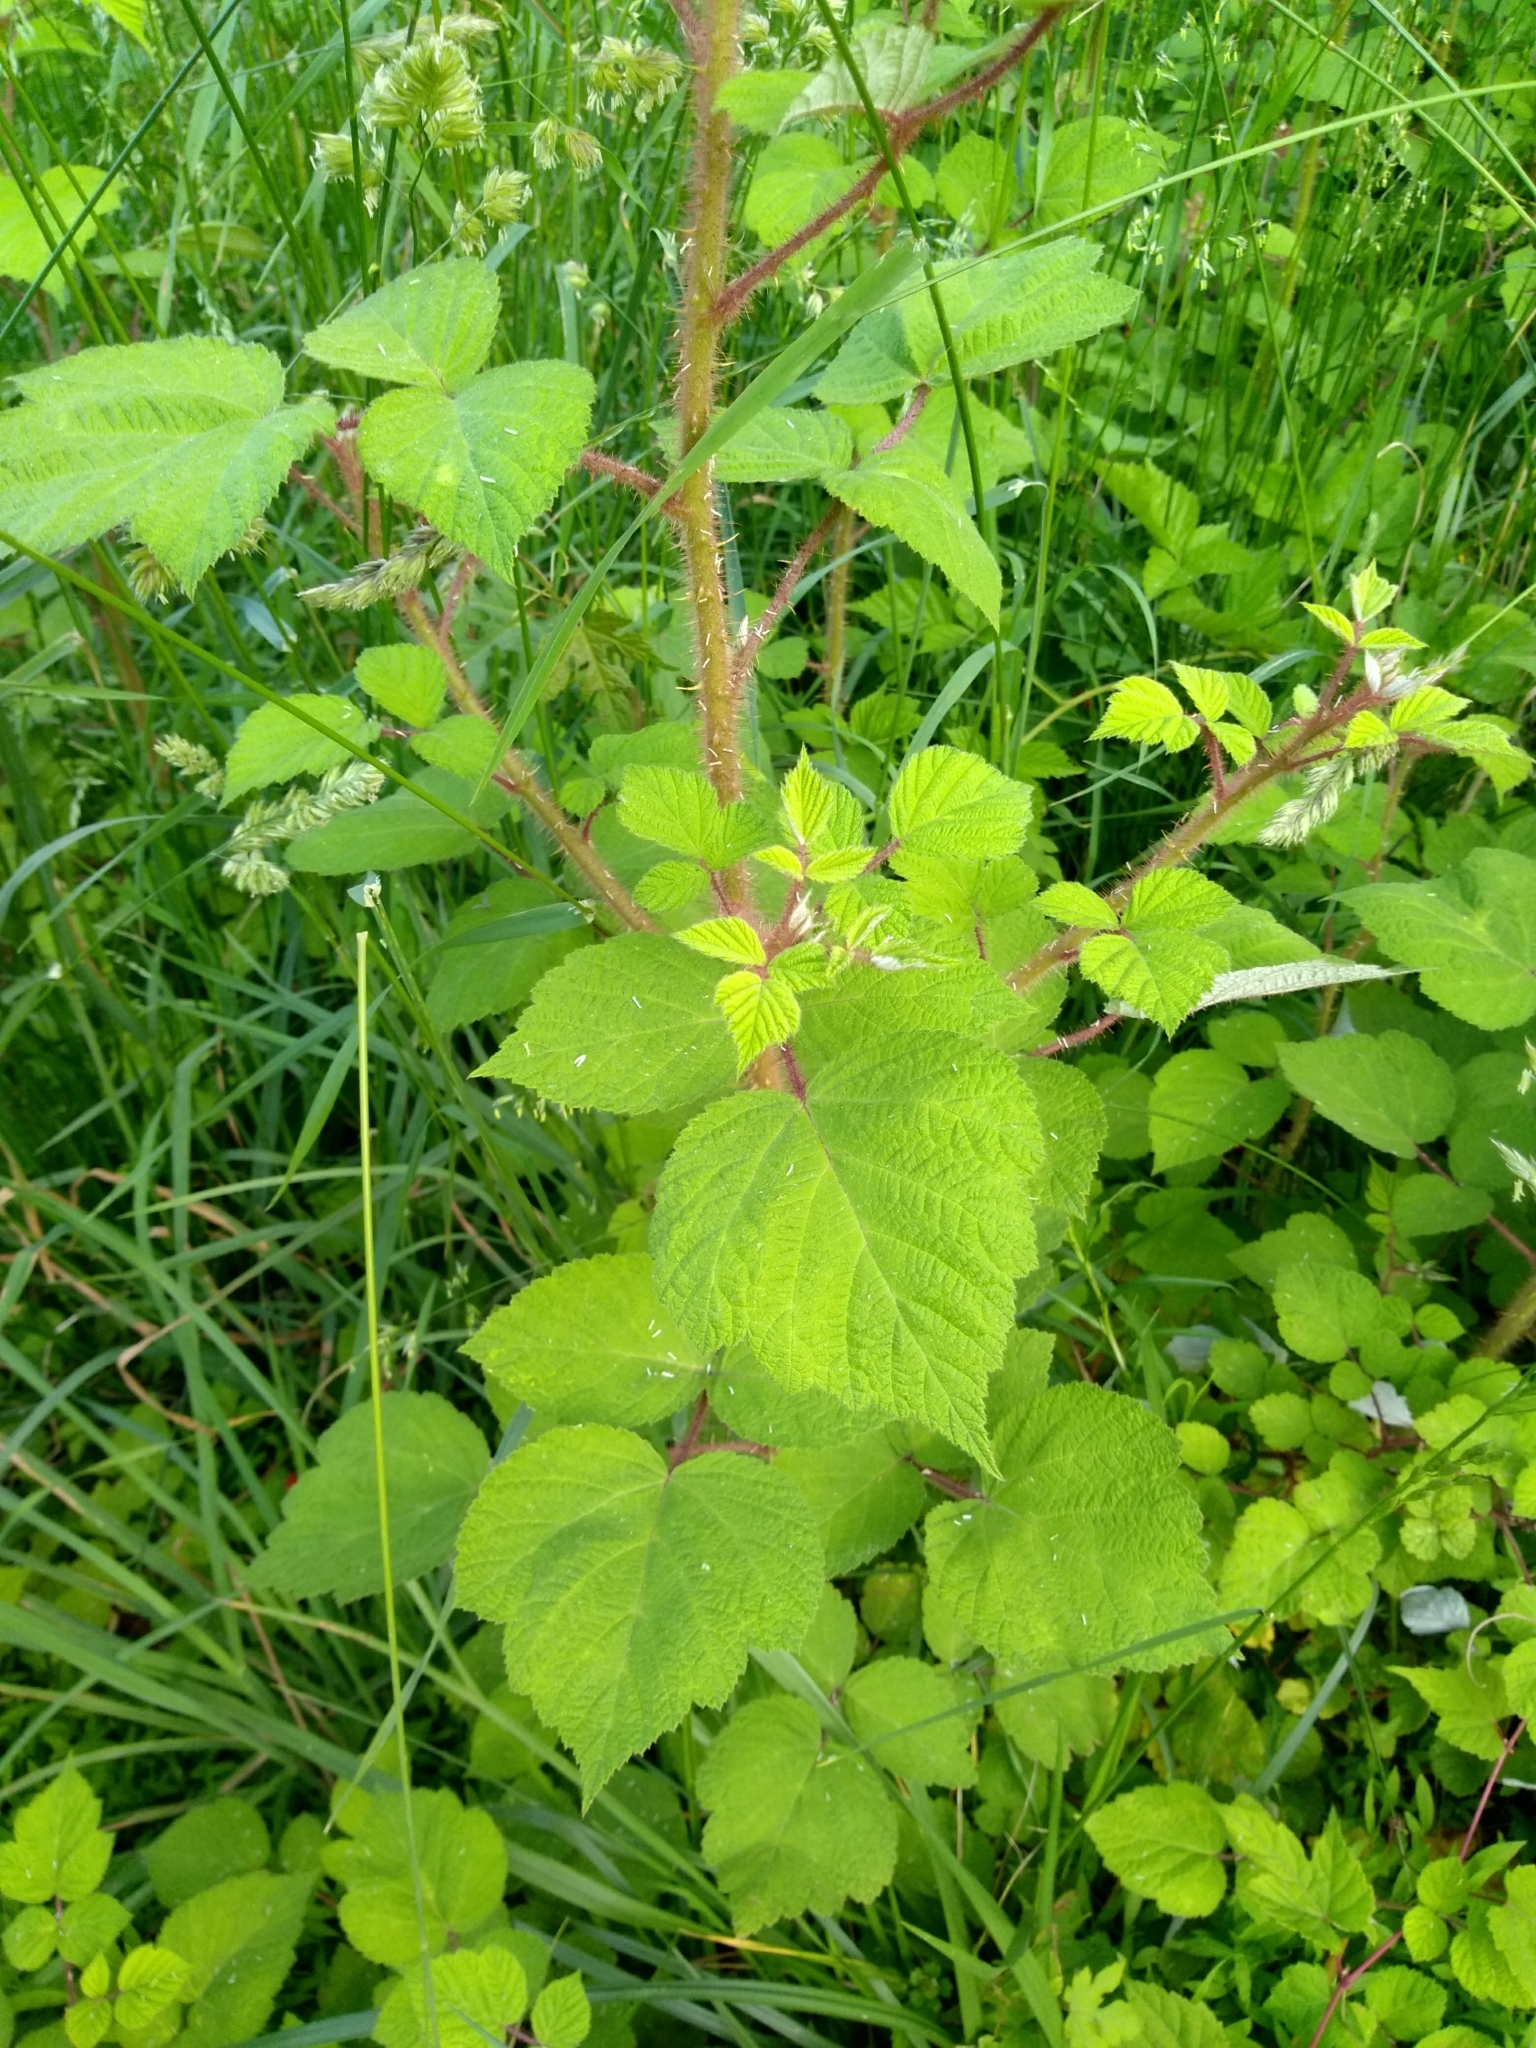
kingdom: Plantae
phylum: Tracheophyta
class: Magnoliopsida
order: Rosales
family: Rosaceae
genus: Rubus
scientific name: Rubus phoenicolasius
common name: Japanese wineberry
